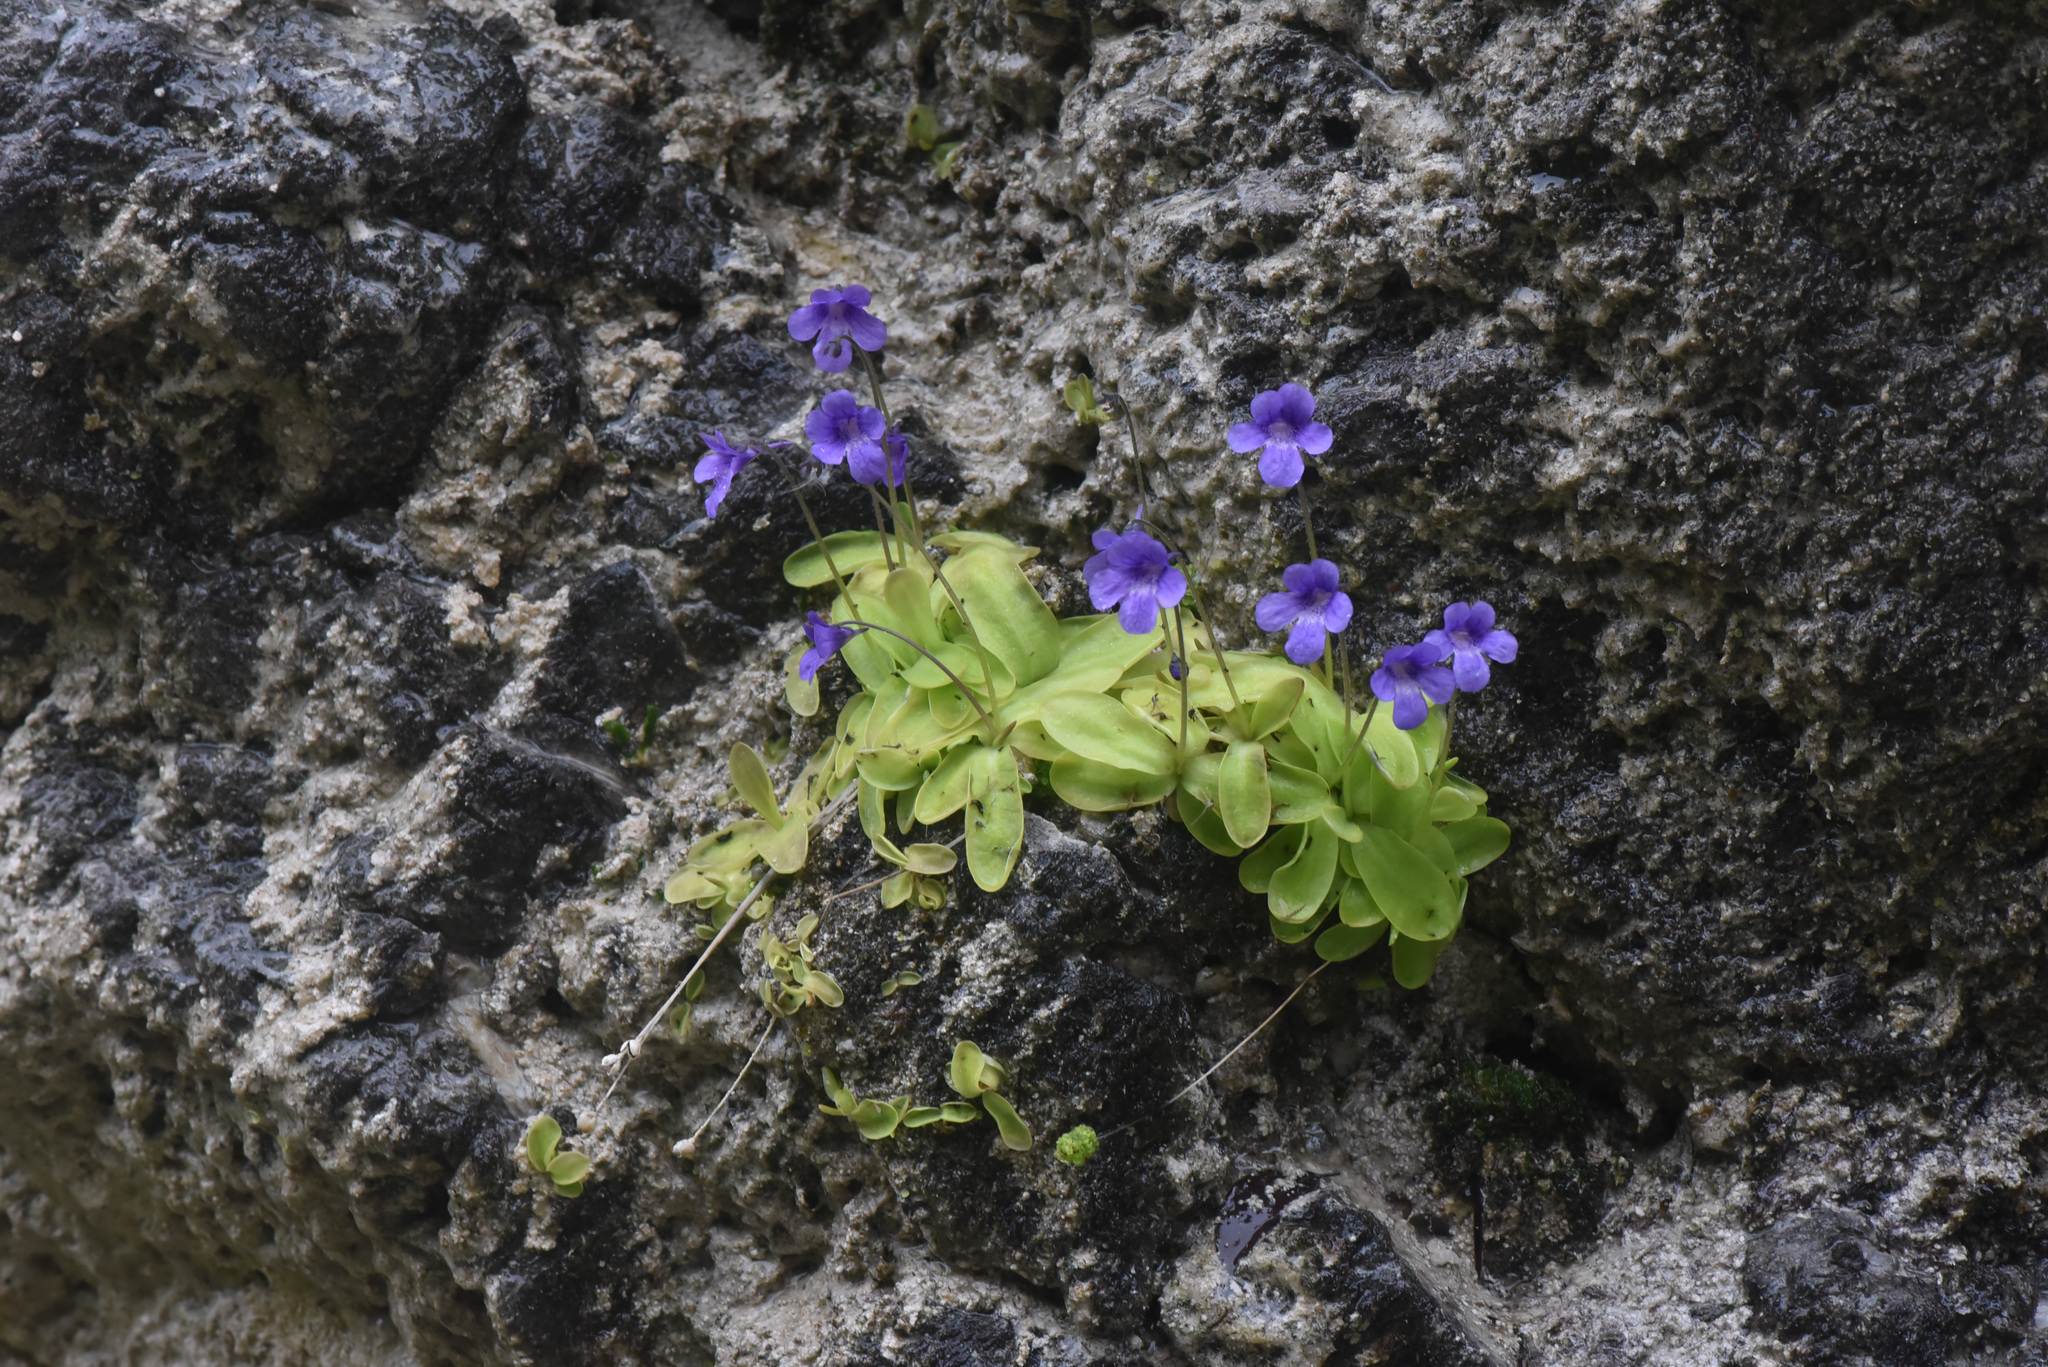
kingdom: Plantae
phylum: Tracheophyta
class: Magnoliopsida
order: Lamiales
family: Lentibulariaceae
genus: Pinguicula
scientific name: Pinguicula vulgaris
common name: Common butterwort
